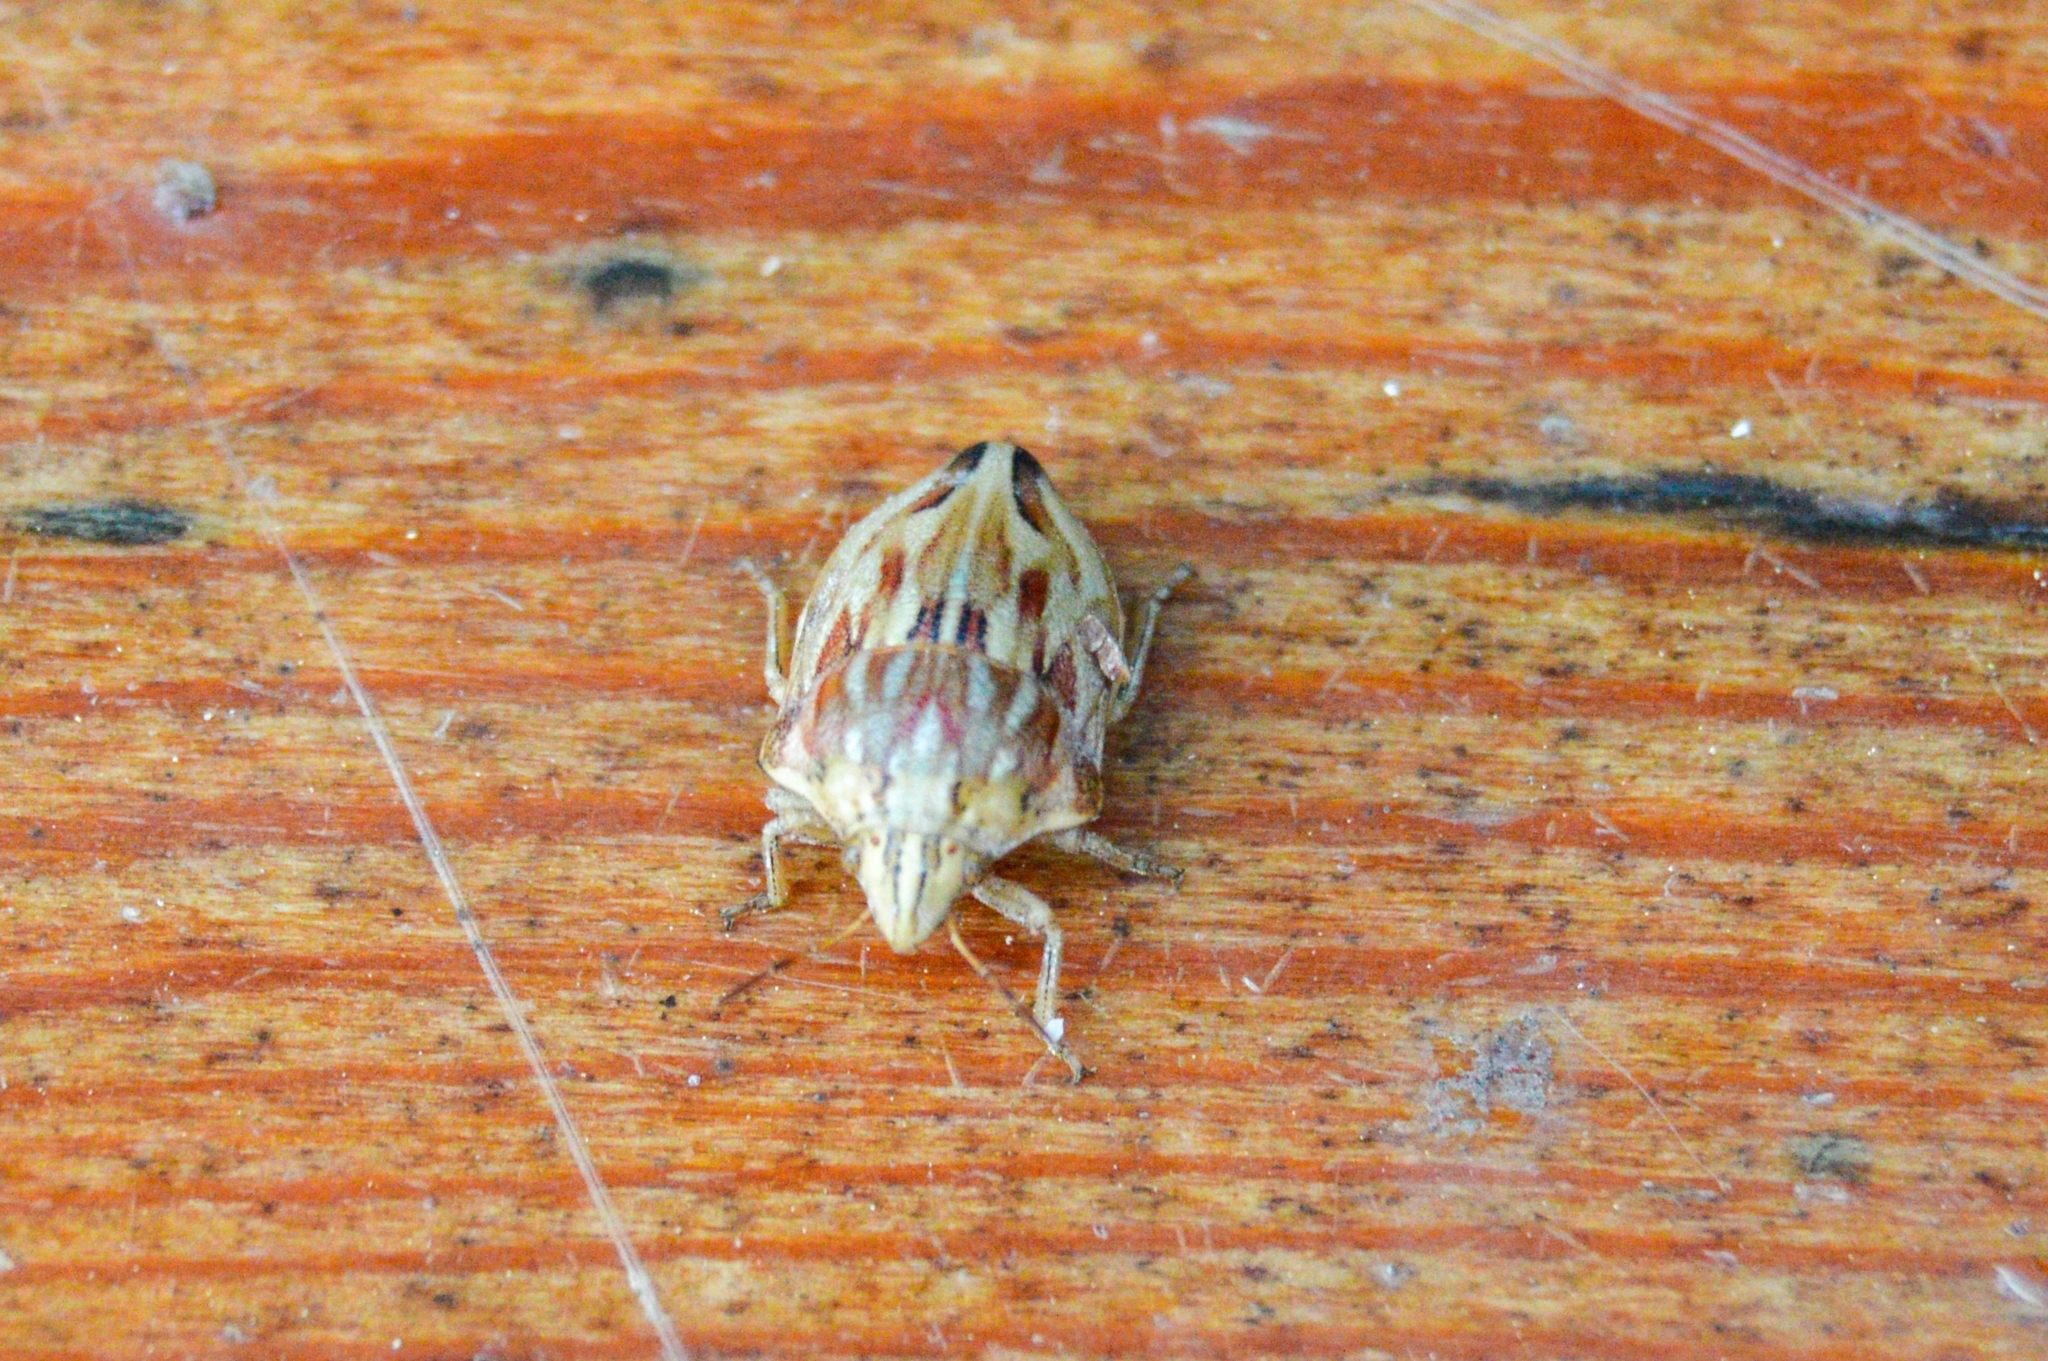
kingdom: Animalia
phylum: Arthropoda
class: Insecta
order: Hemiptera
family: Scutelleridae
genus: Odontotarsus
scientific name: Odontotarsus robustus
